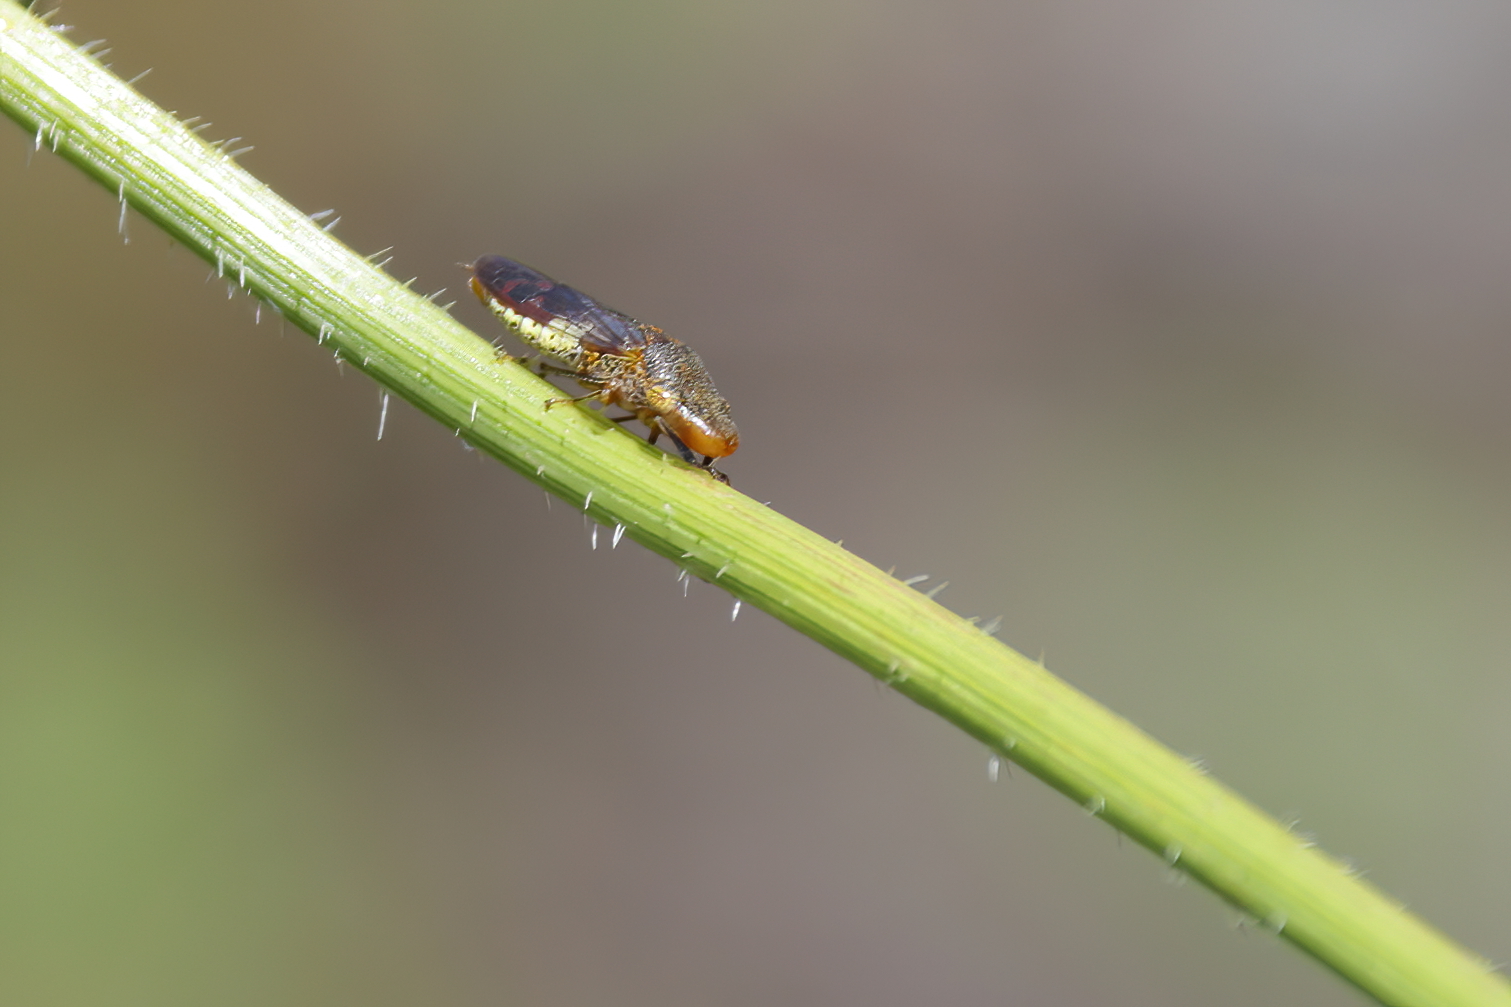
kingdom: Animalia
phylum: Arthropoda
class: Insecta
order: Hemiptera
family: Cicadellidae
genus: Homalodisca
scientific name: Homalodisca vitripennis
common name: Glassy-winged sharpshooter
